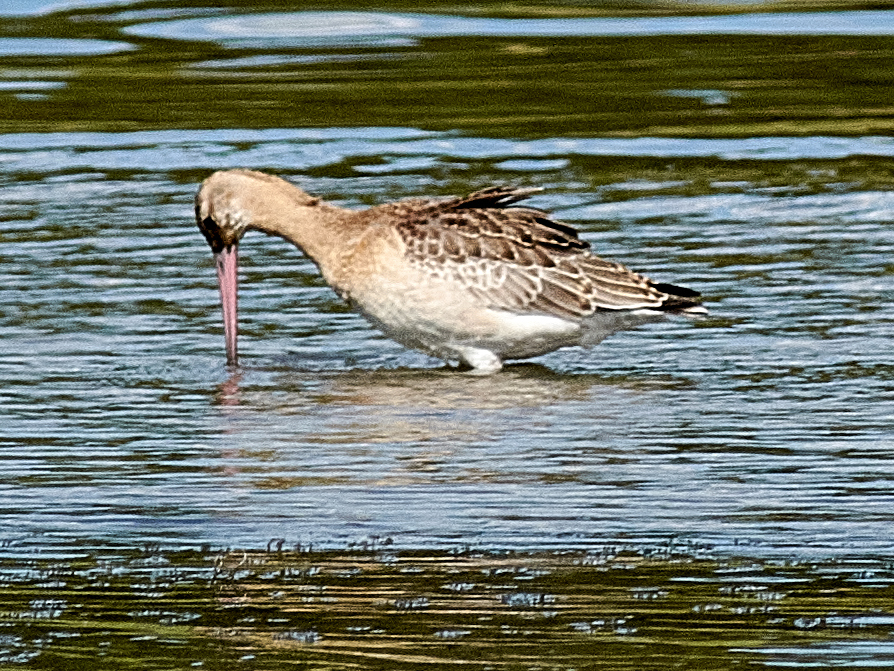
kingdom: Animalia
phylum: Chordata
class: Aves
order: Charadriiformes
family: Scolopacidae
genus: Limosa
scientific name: Limosa limosa
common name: Black-tailed godwit
